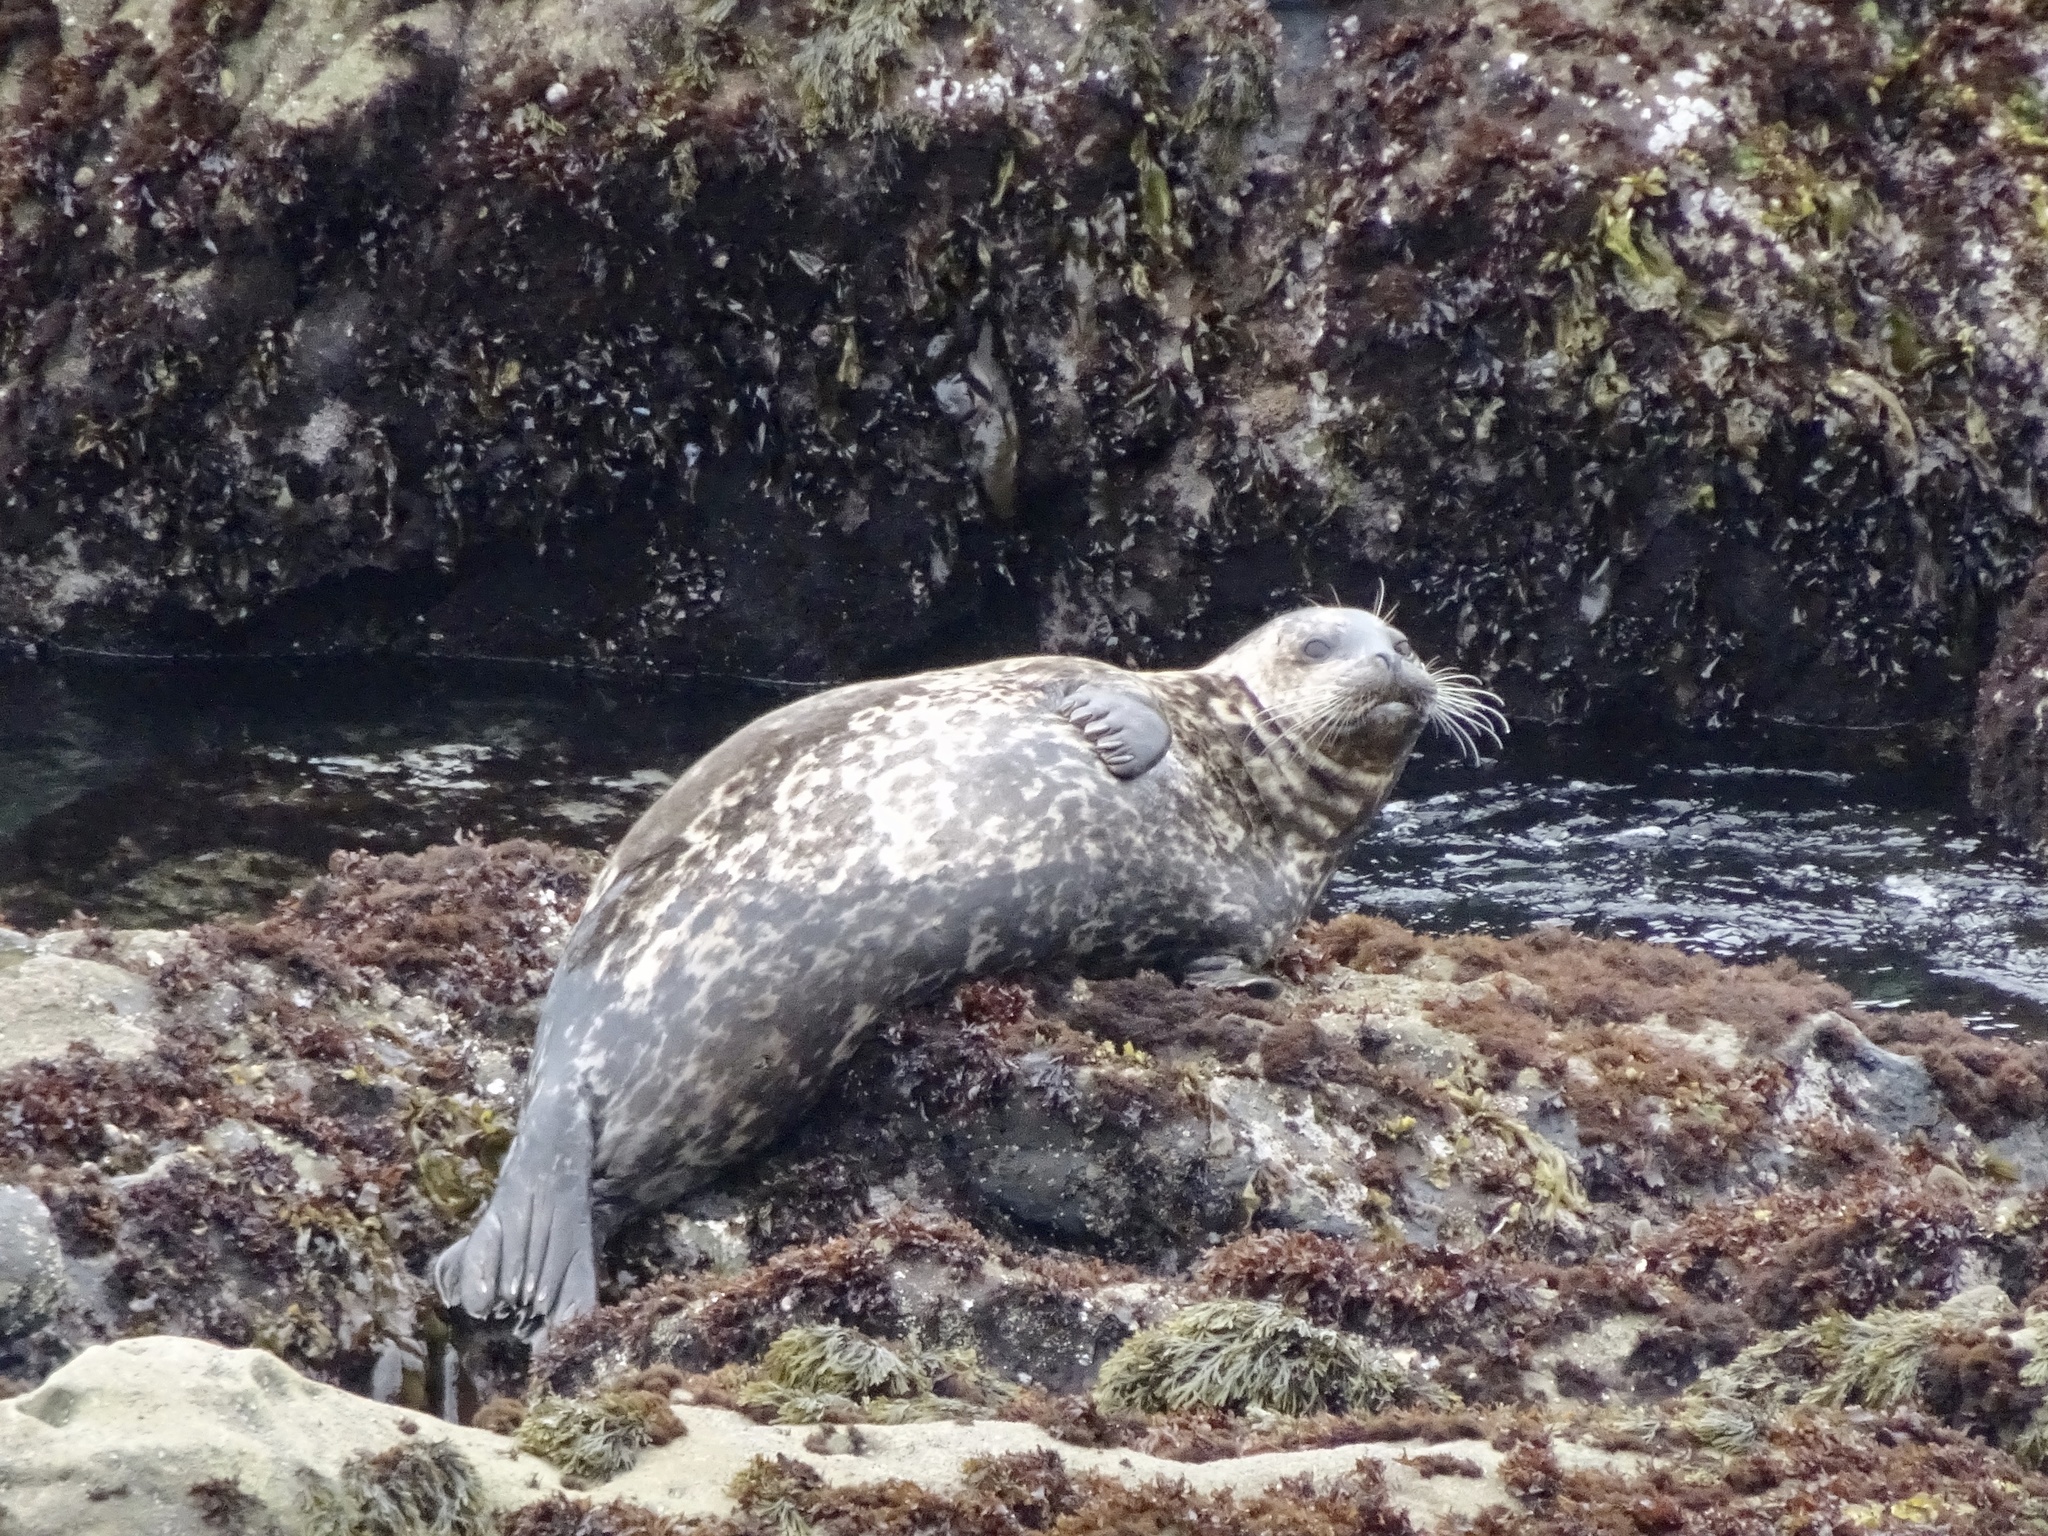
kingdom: Animalia
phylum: Chordata
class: Mammalia
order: Carnivora
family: Phocidae
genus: Phoca
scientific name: Phoca vitulina
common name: Harbor seal
